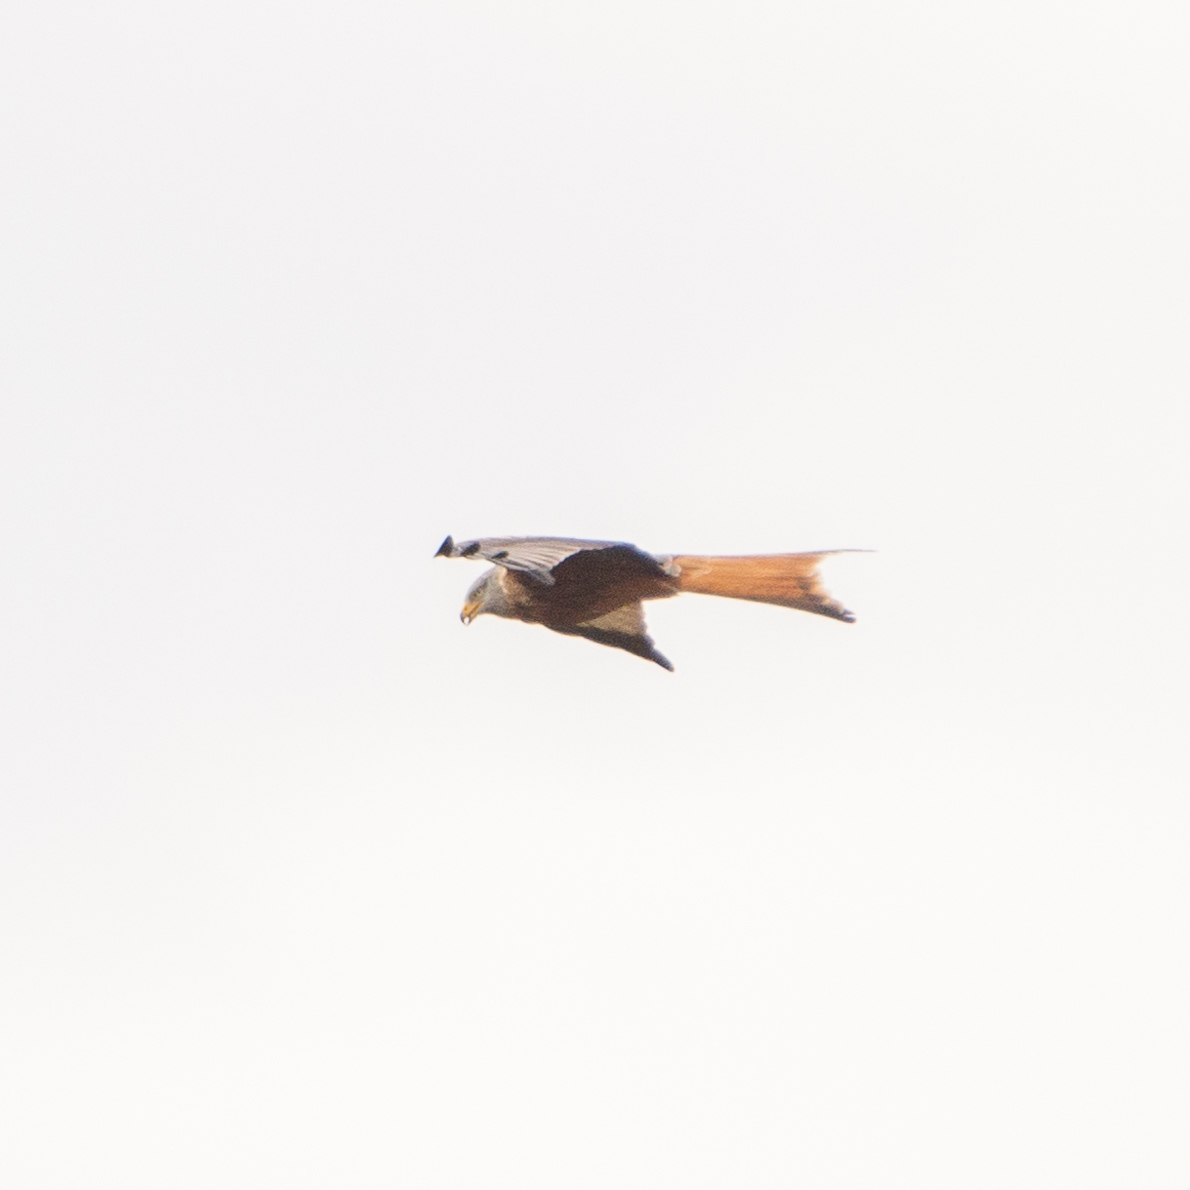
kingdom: Animalia
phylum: Chordata
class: Aves
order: Accipitriformes
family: Accipitridae
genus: Milvus
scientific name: Milvus milvus
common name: Red kite
